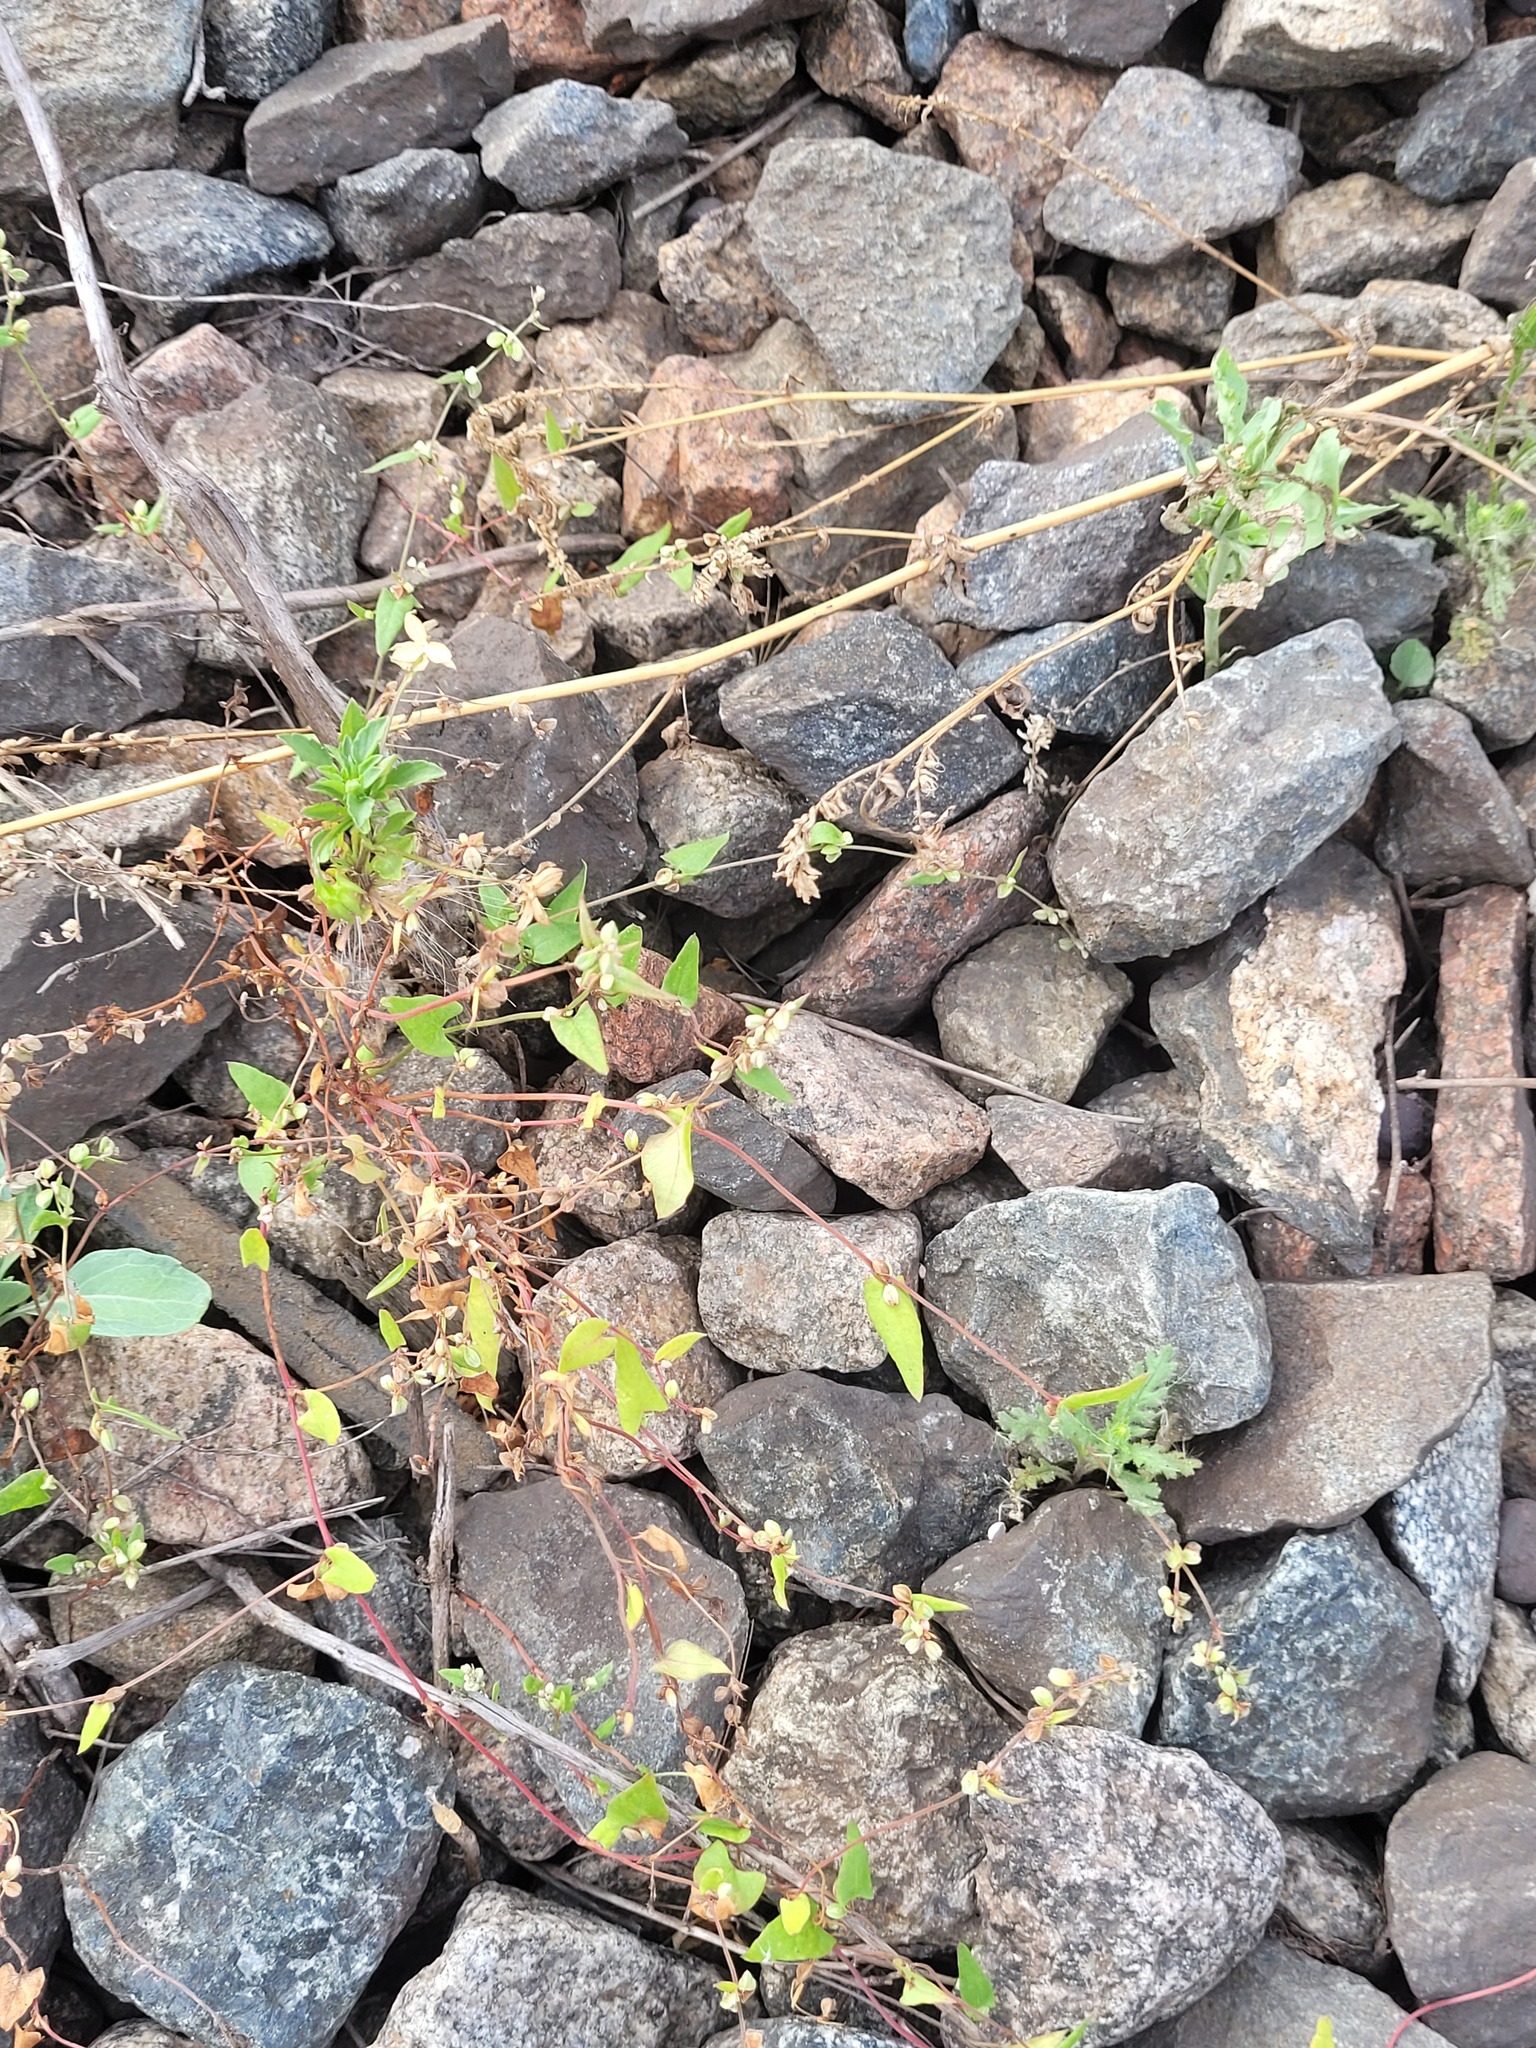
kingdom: Plantae
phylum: Tracheophyta
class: Magnoliopsida
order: Caryophyllales
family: Polygonaceae
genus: Fallopia
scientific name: Fallopia convolvulus
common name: Black bindweed
